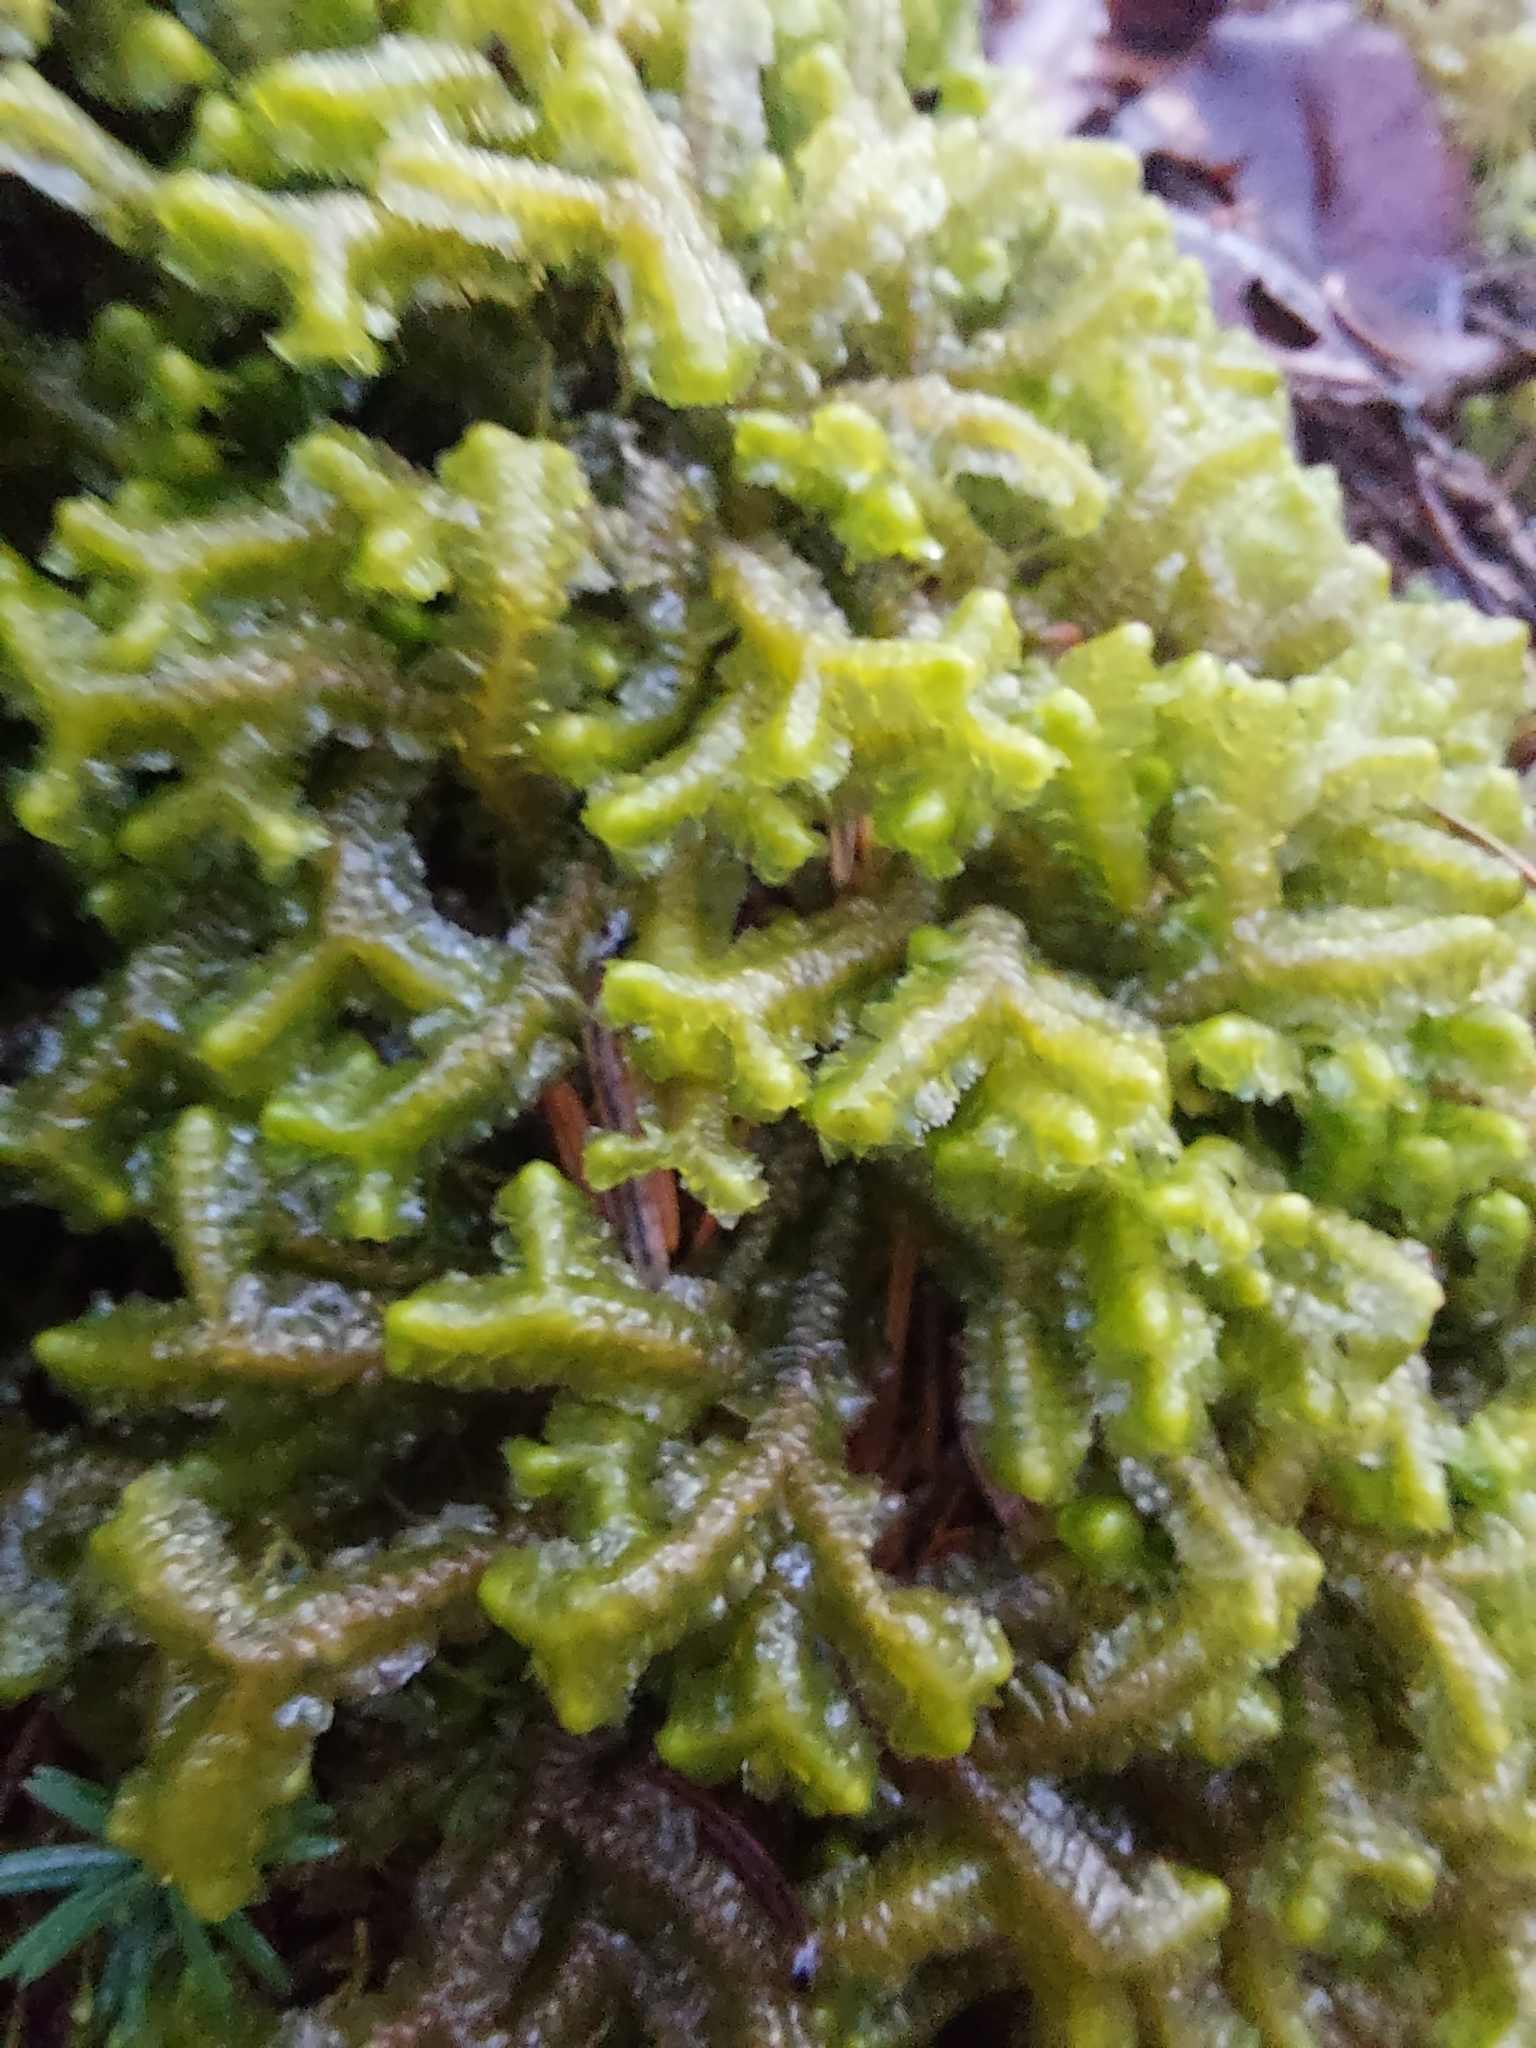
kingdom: Plantae
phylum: Marchantiophyta
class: Jungermanniopsida
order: Jungermanniales
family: Lepidoziaceae
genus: Bazzania
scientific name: Bazzania trilobata
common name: Three-lobed whipwort
